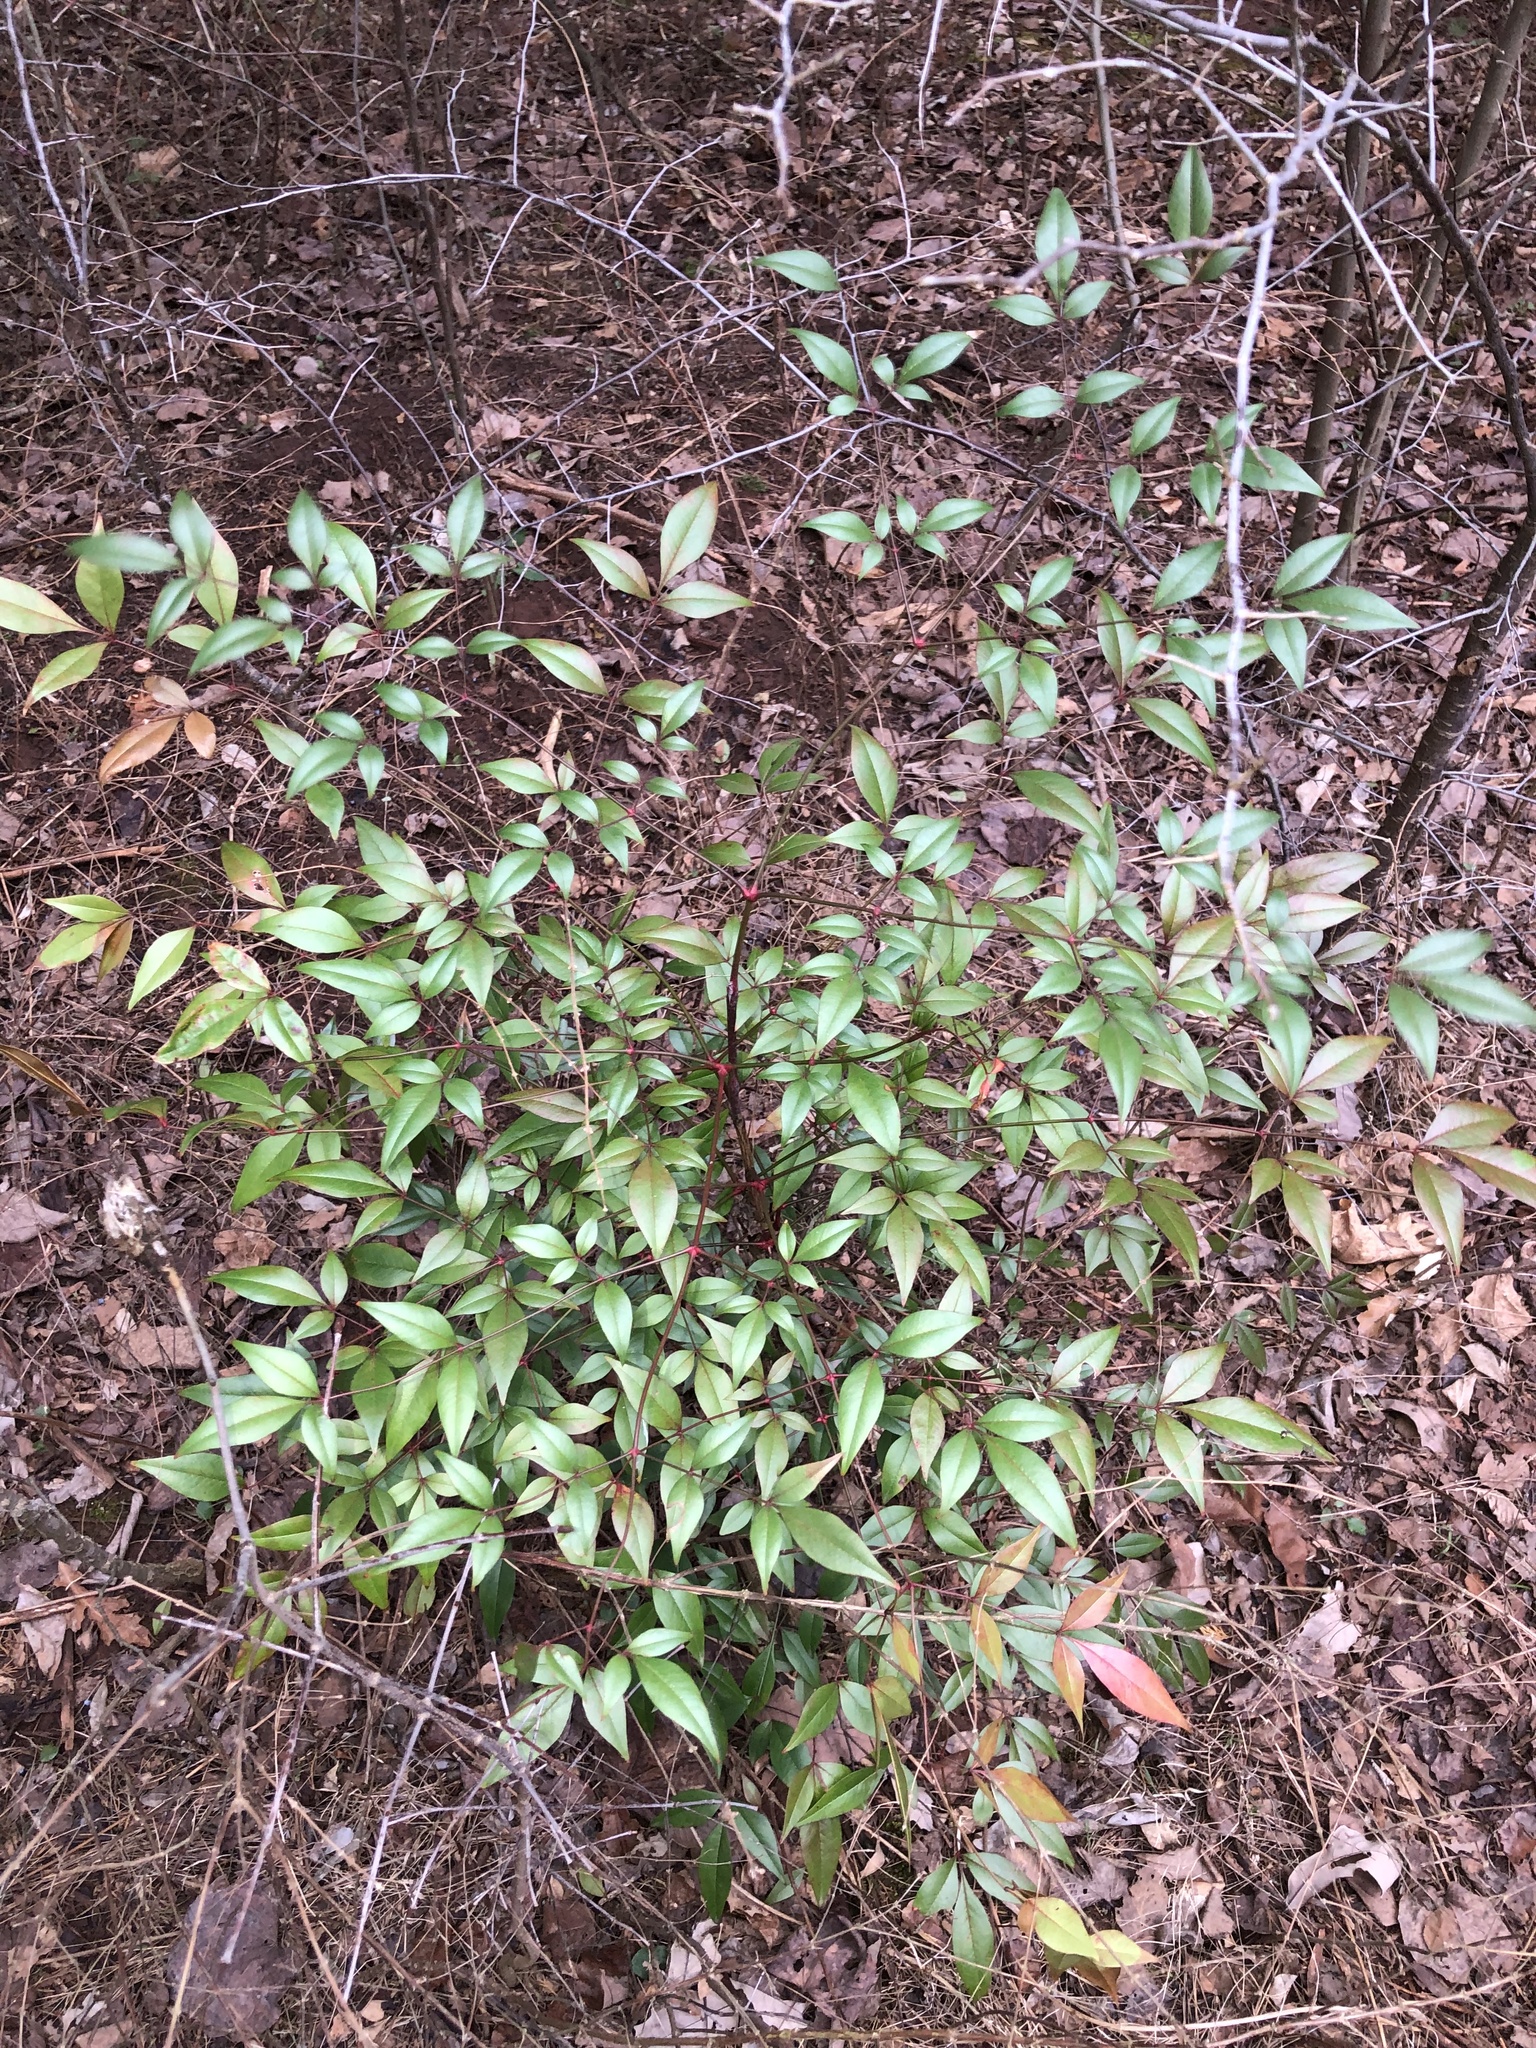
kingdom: Plantae
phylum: Tracheophyta
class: Magnoliopsida
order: Ranunculales
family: Berberidaceae
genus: Nandina
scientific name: Nandina domestica
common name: Sacred bamboo
